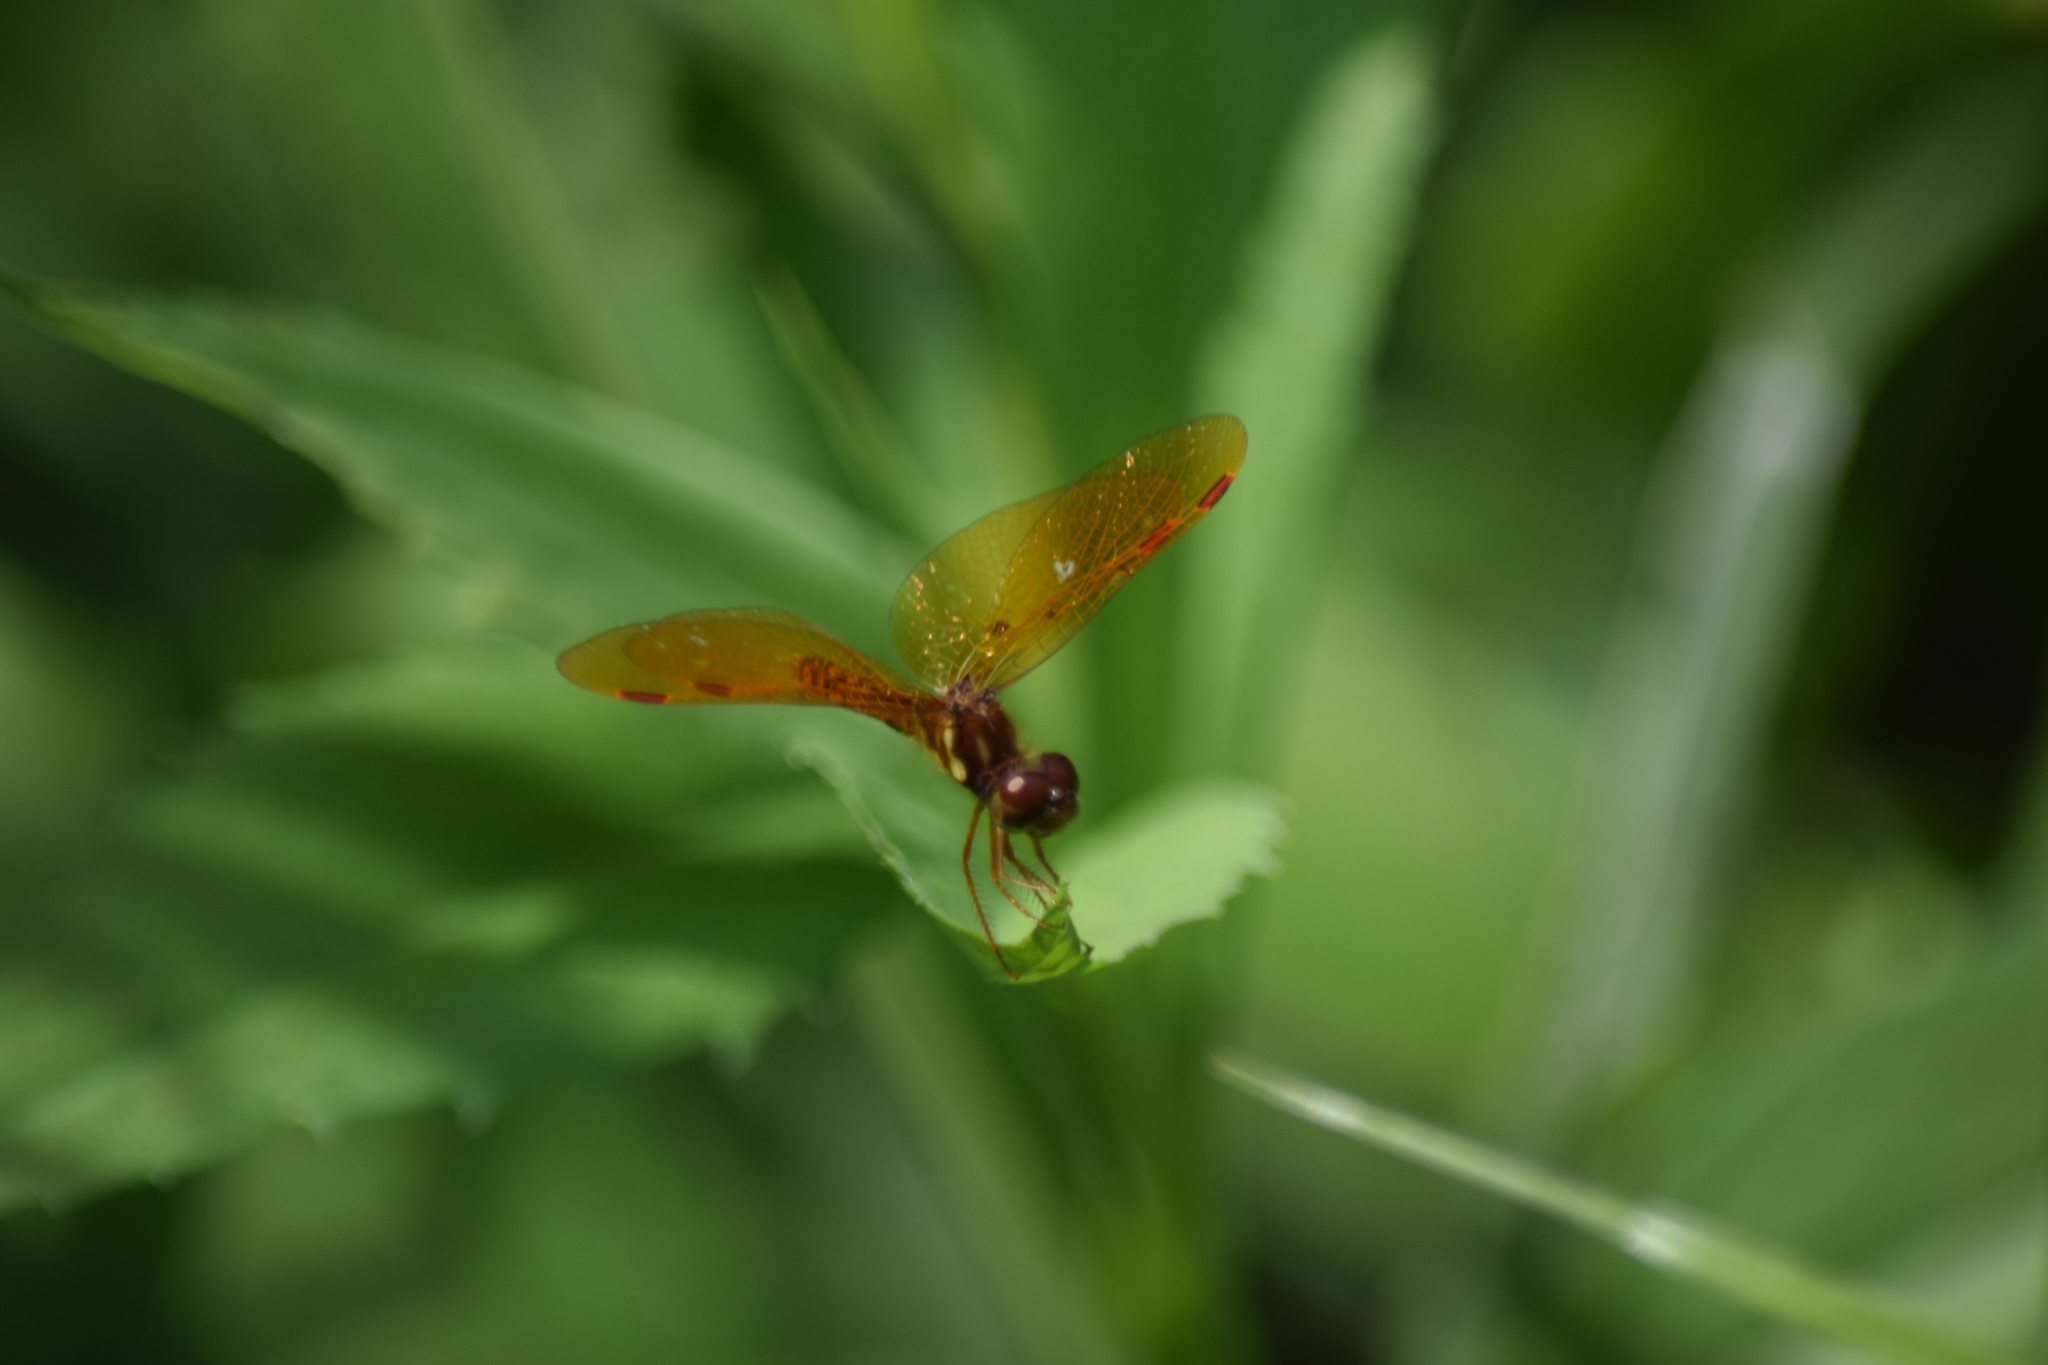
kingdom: Animalia
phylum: Arthropoda
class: Insecta
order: Odonata
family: Libellulidae
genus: Perithemis
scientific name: Perithemis tenera
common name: Eastern amberwing
